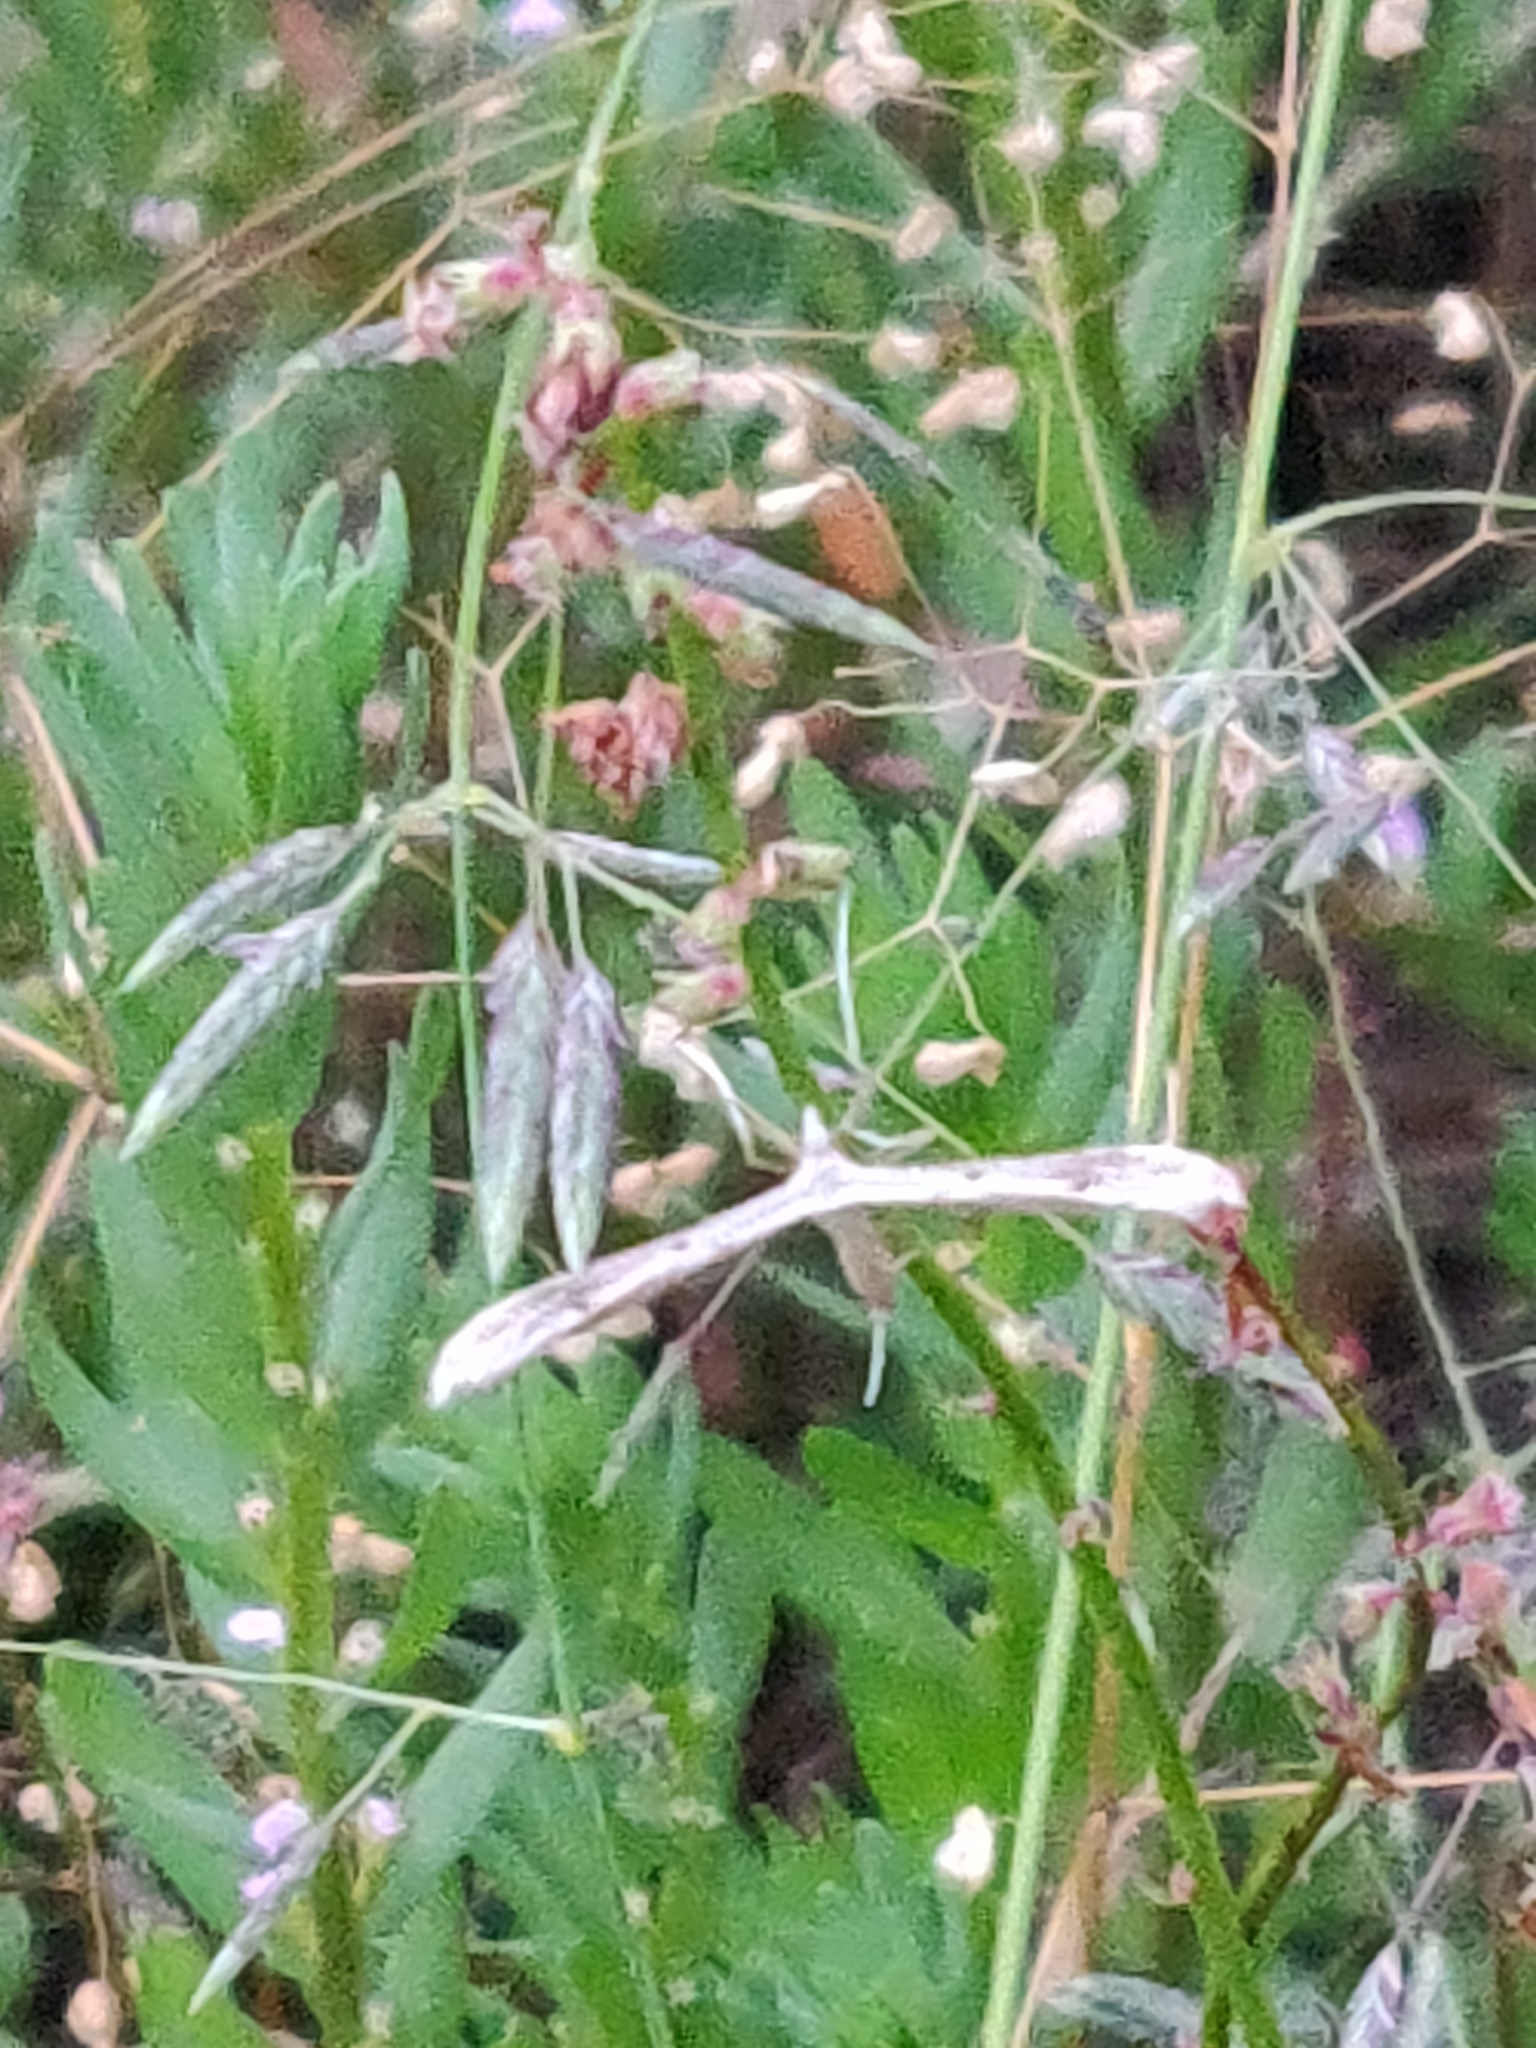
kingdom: Animalia
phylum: Arthropoda
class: Insecta
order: Lepidoptera
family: Pterophoridae
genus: Stenoptilia
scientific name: Stenoptilia zophodactylus
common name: Dowdy plume
